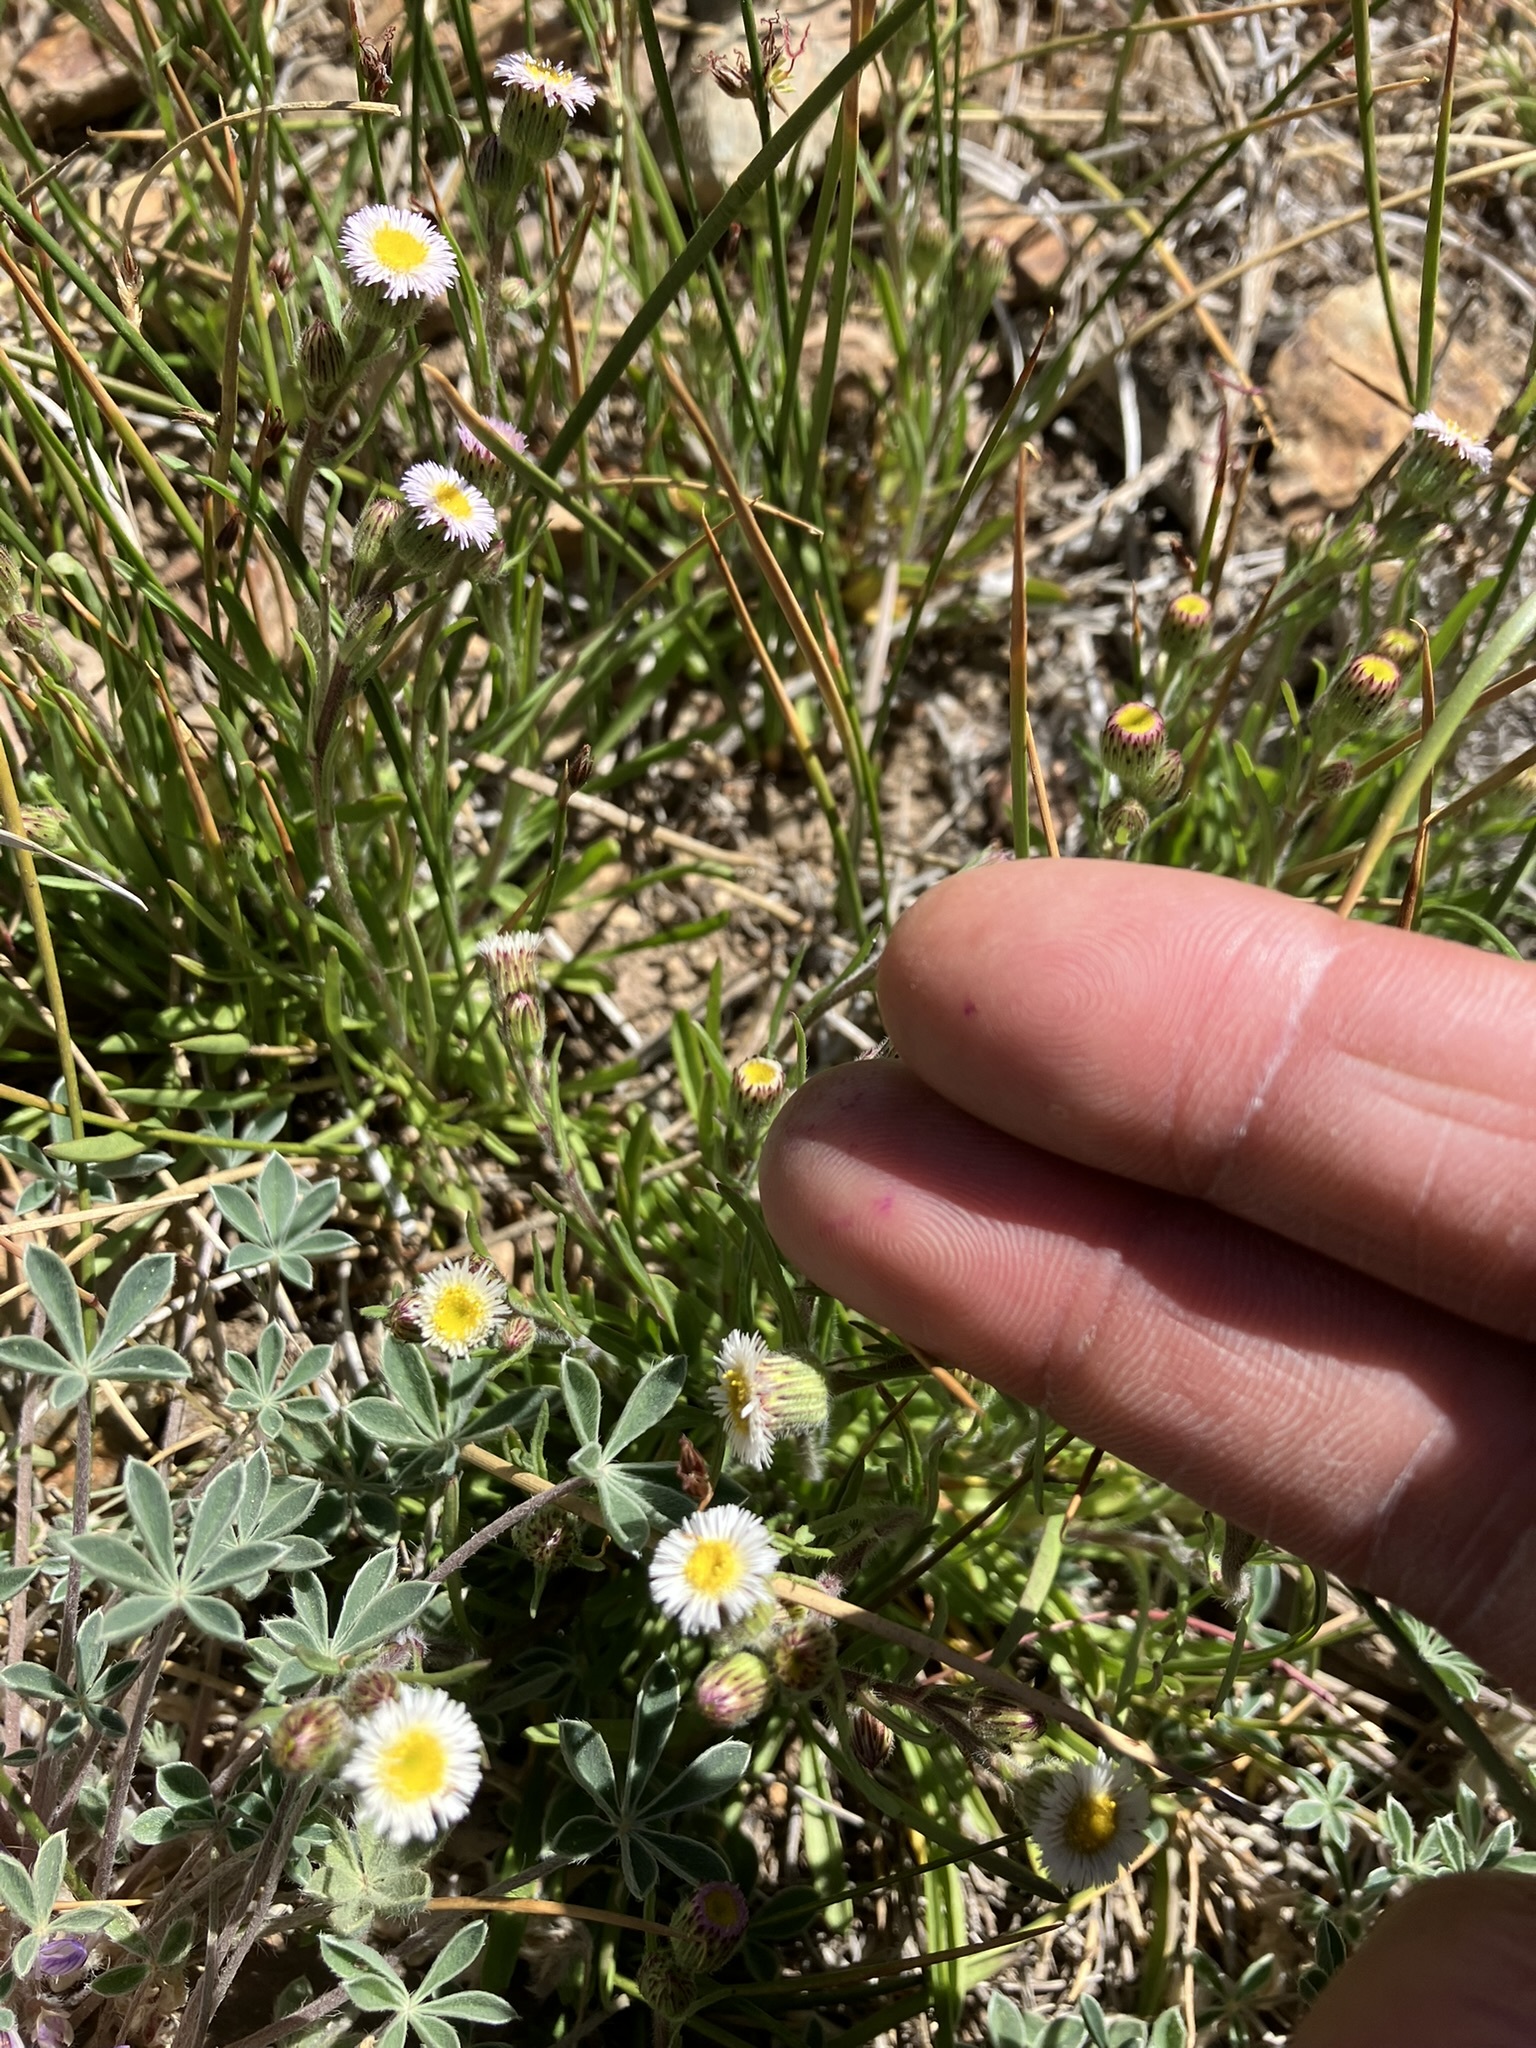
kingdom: Plantae
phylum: Tracheophyta
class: Magnoliopsida
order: Asterales
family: Asteraceae
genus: Erigeron
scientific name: Erigeron lonchophyllus
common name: Short-ray fleabane
